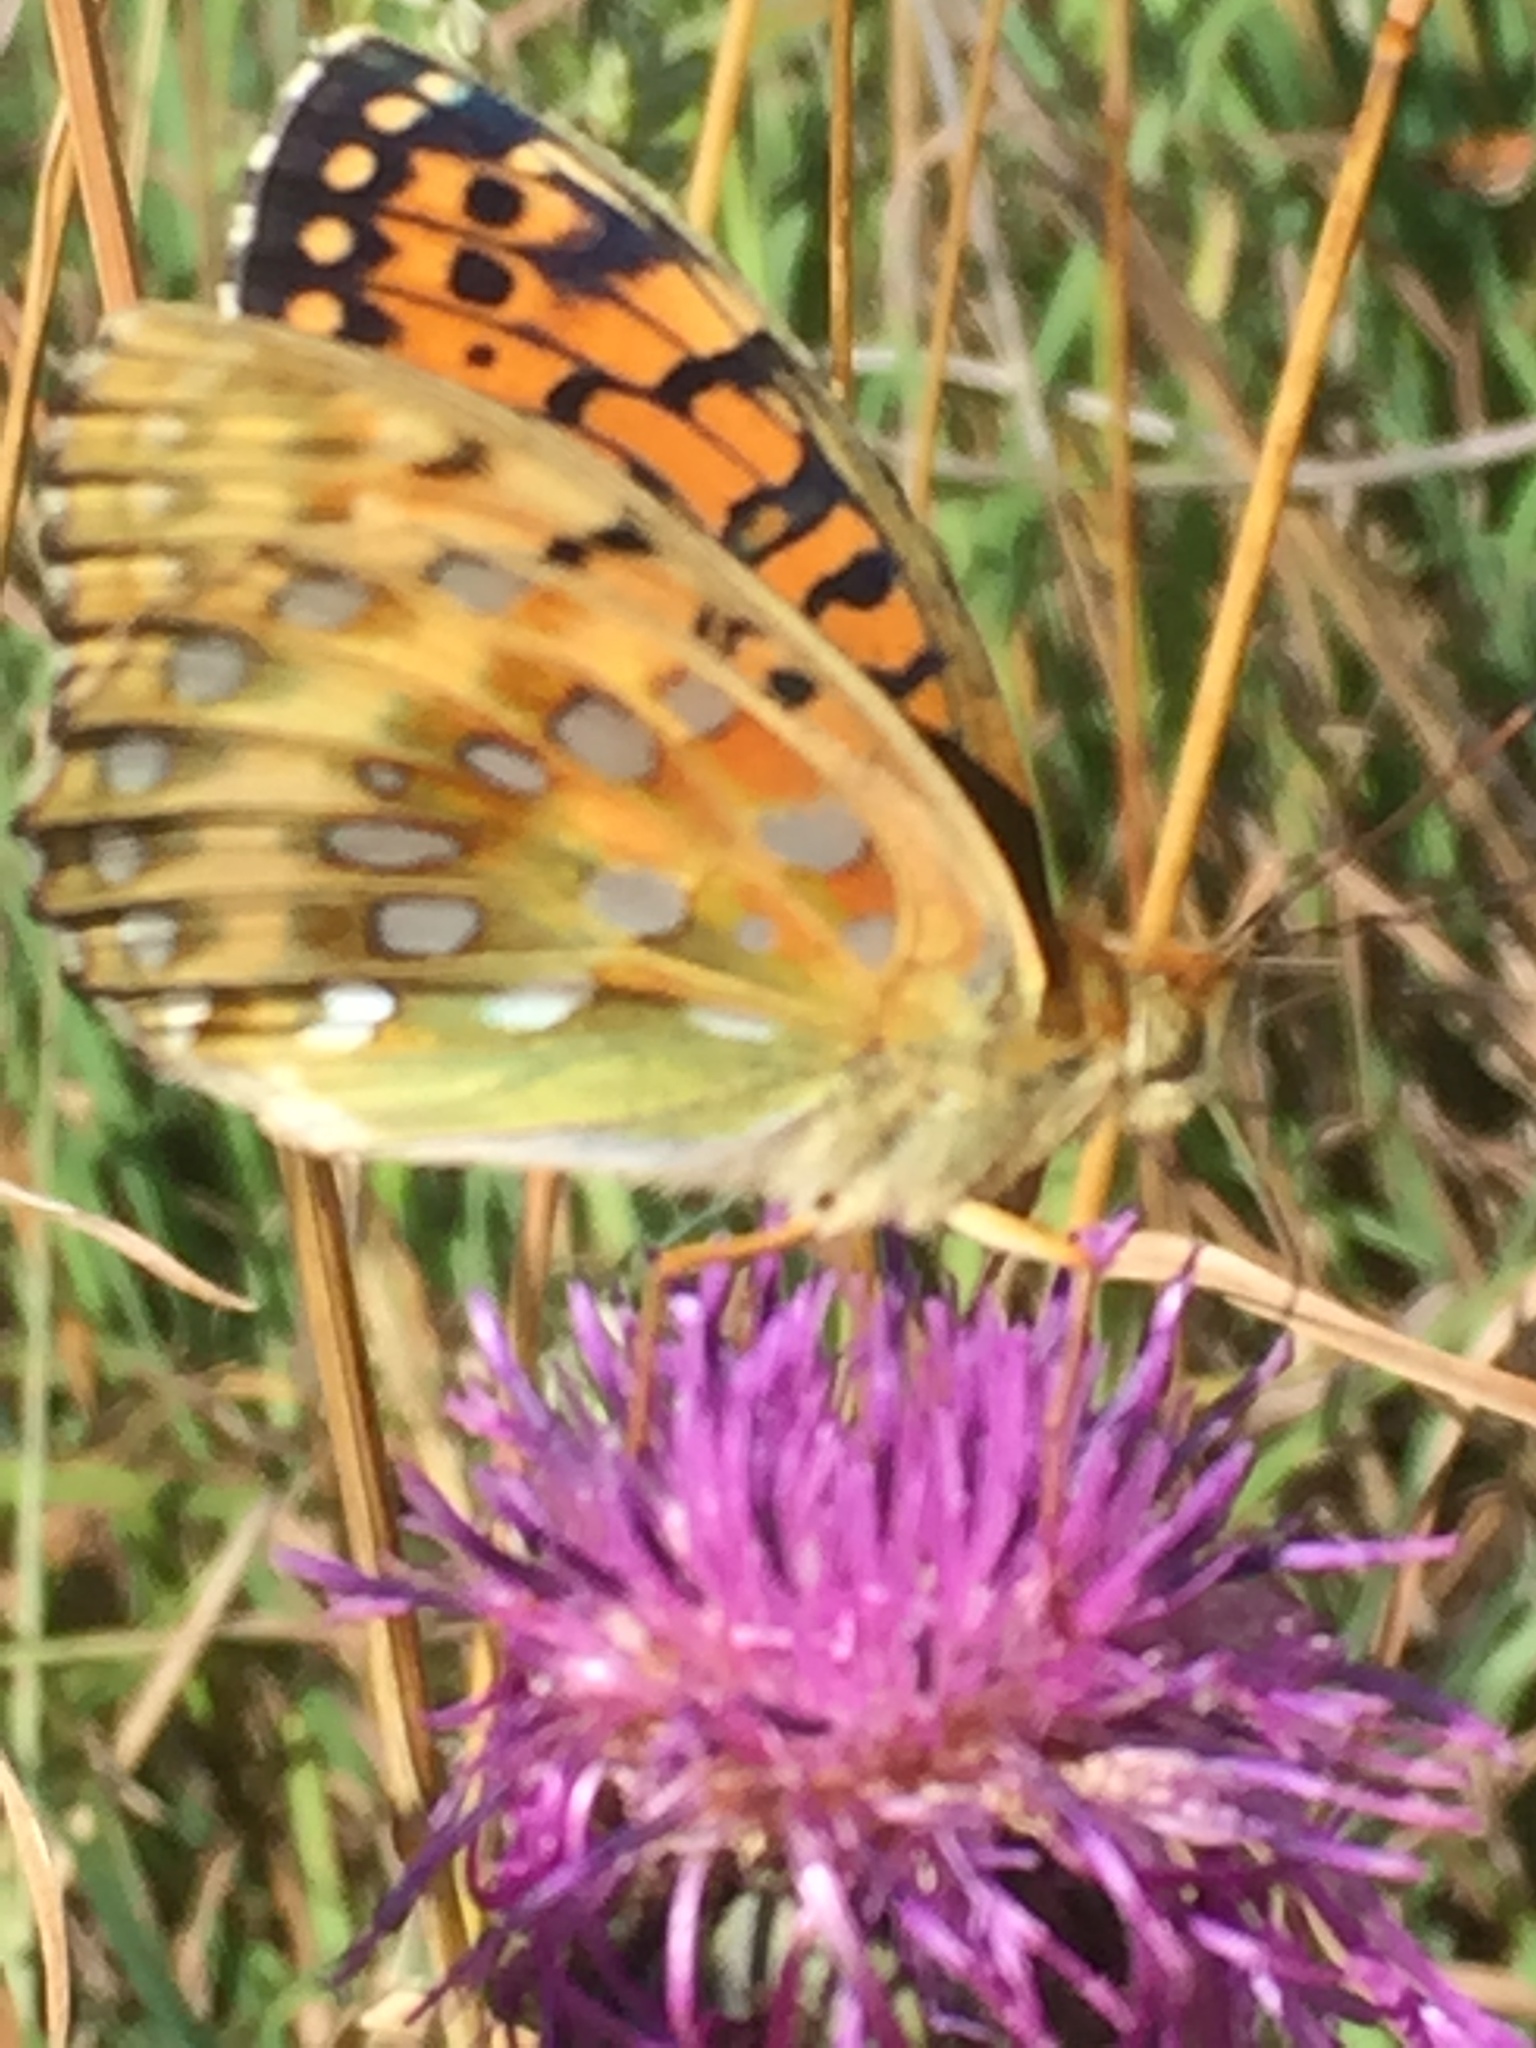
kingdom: Animalia
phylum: Arthropoda
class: Insecta
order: Lepidoptera
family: Nymphalidae
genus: Speyeria
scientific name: Speyeria aglaja
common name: Dark green fritillary
